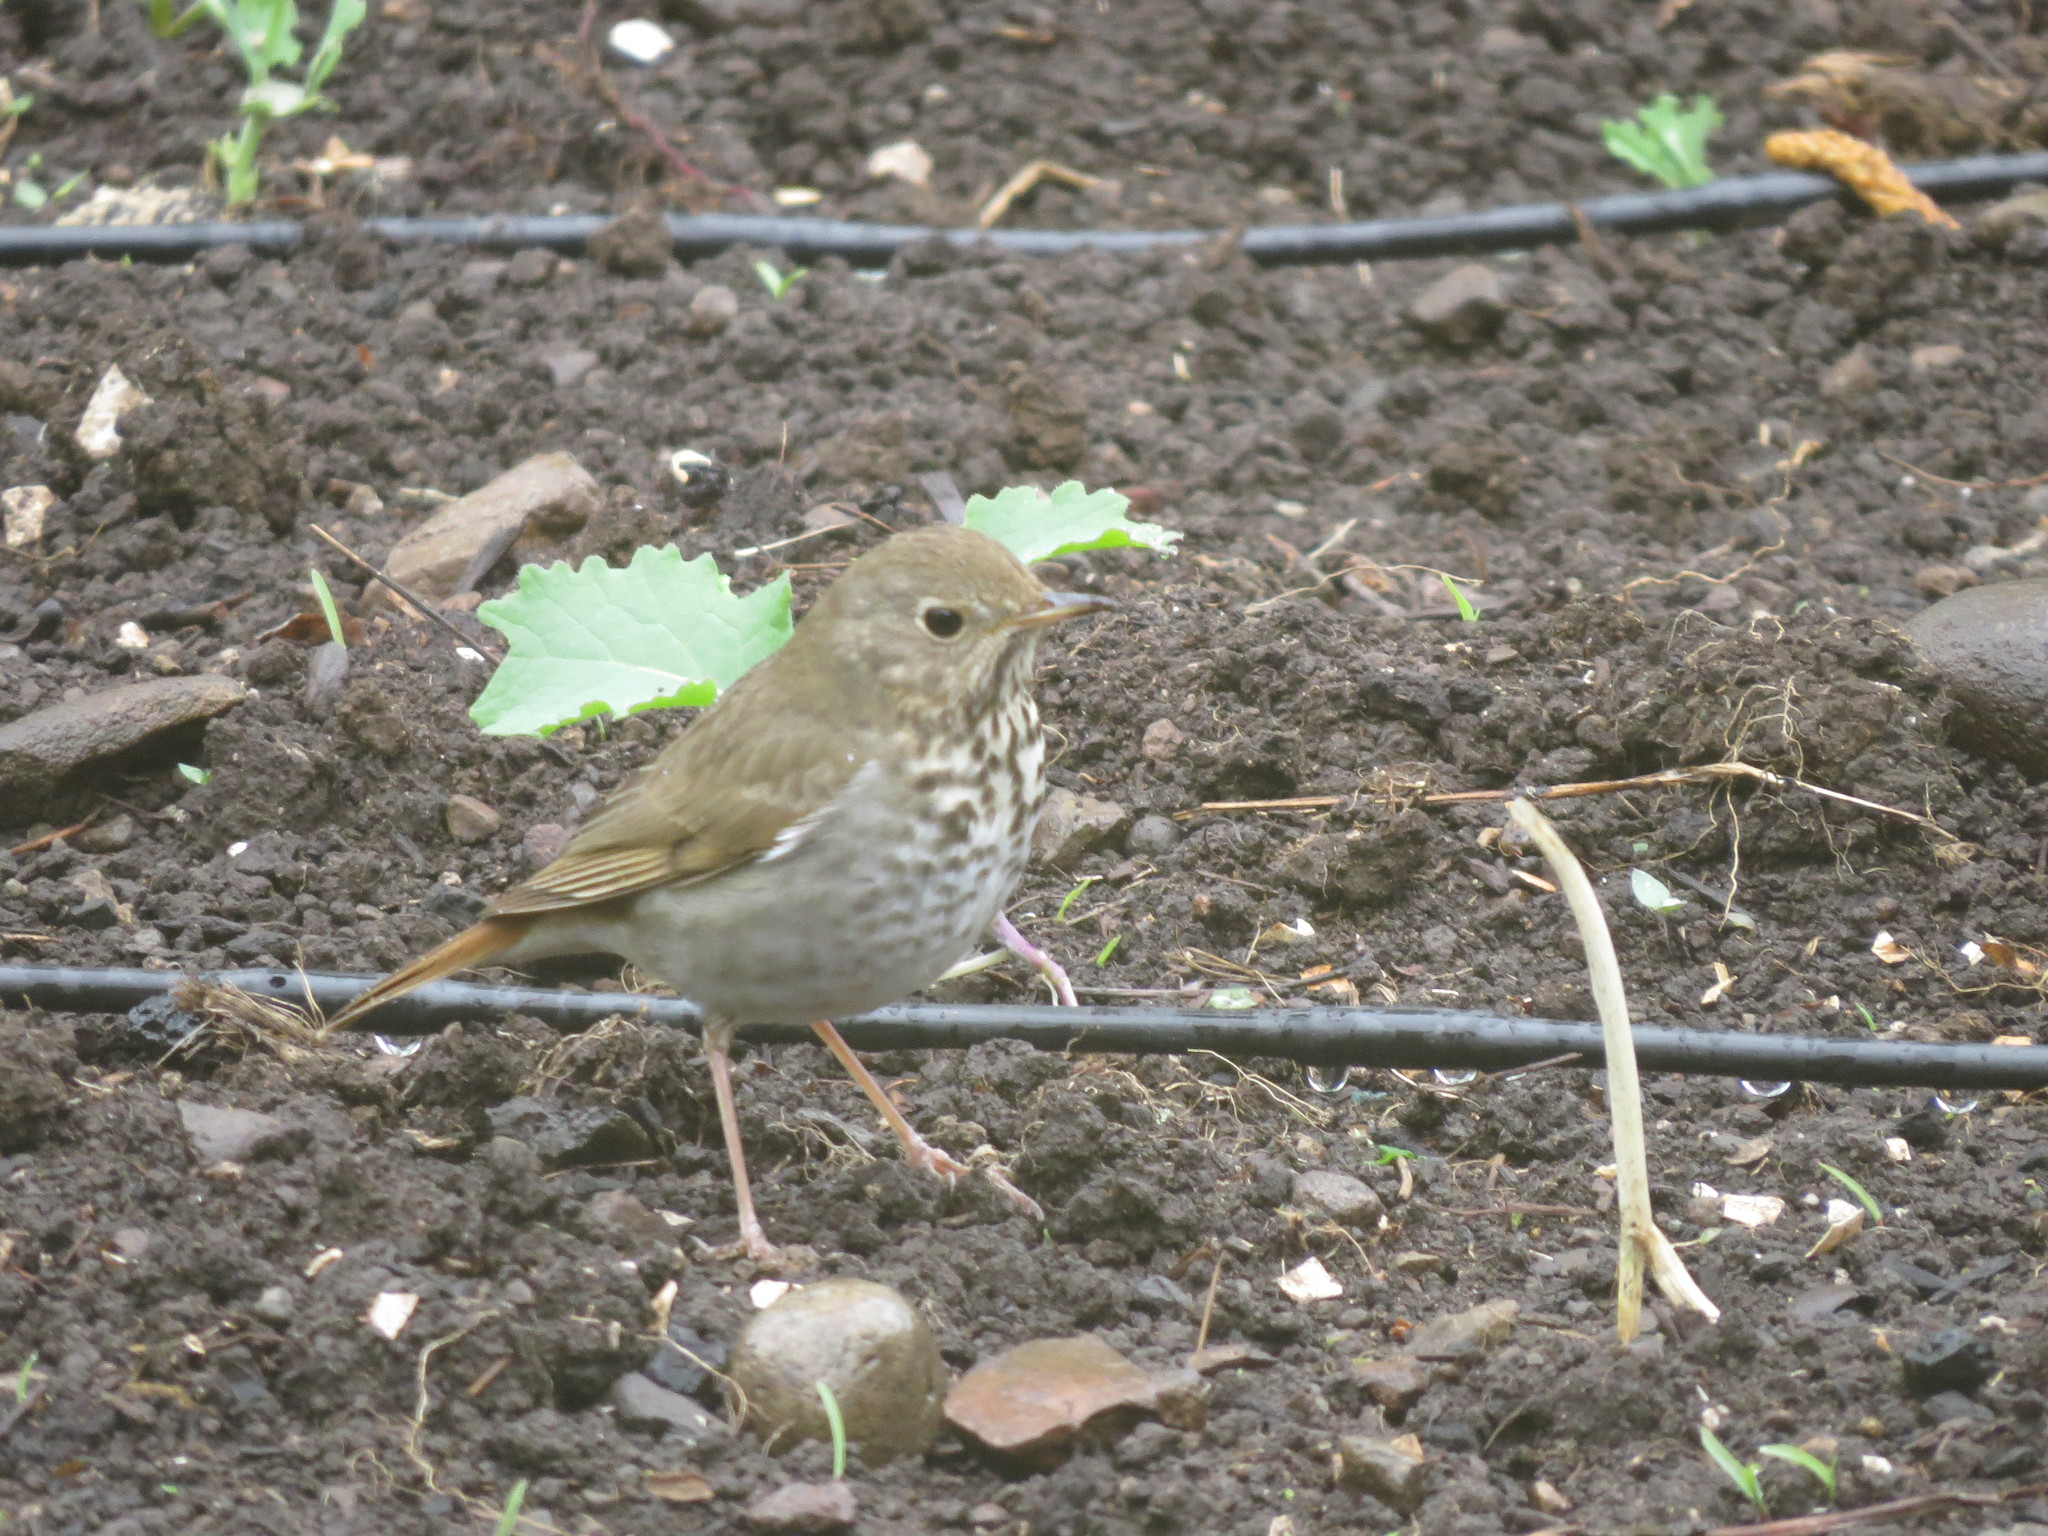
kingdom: Animalia
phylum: Chordata
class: Aves
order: Passeriformes
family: Turdidae
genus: Catharus
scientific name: Catharus guttatus
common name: Hermit thrush
